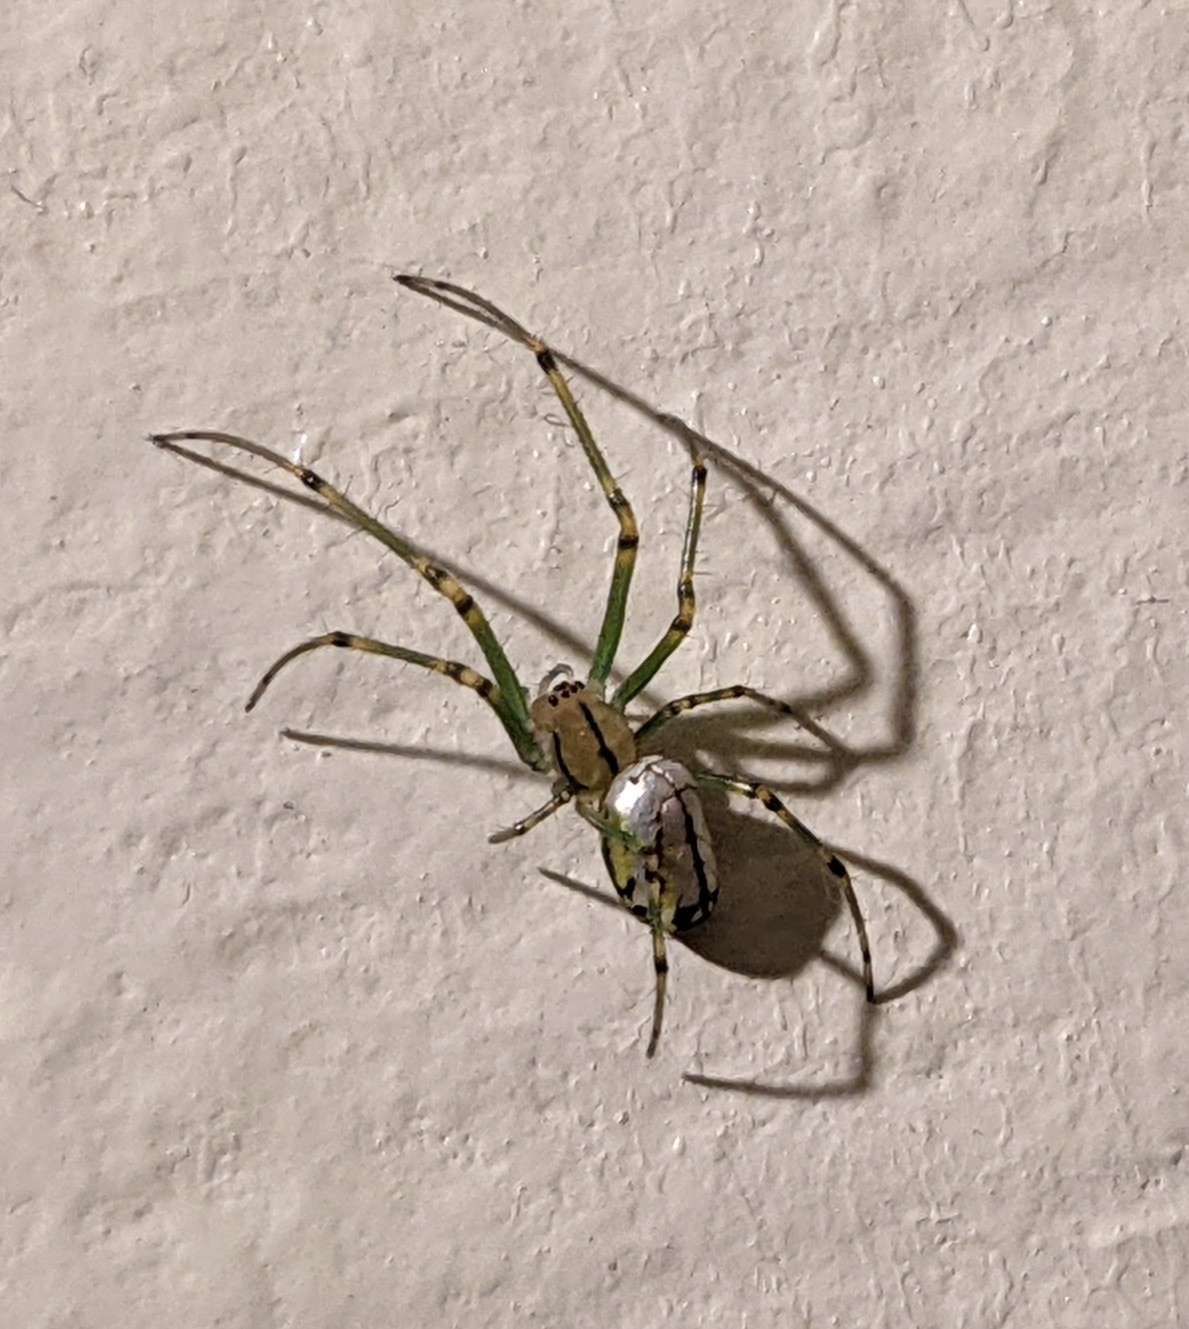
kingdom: Animalia
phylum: Arthropoda
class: Arachnida
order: Araneae
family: Tetragnathidae
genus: Leucauge
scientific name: Leucauge venusta
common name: Longjawed orb weavers
